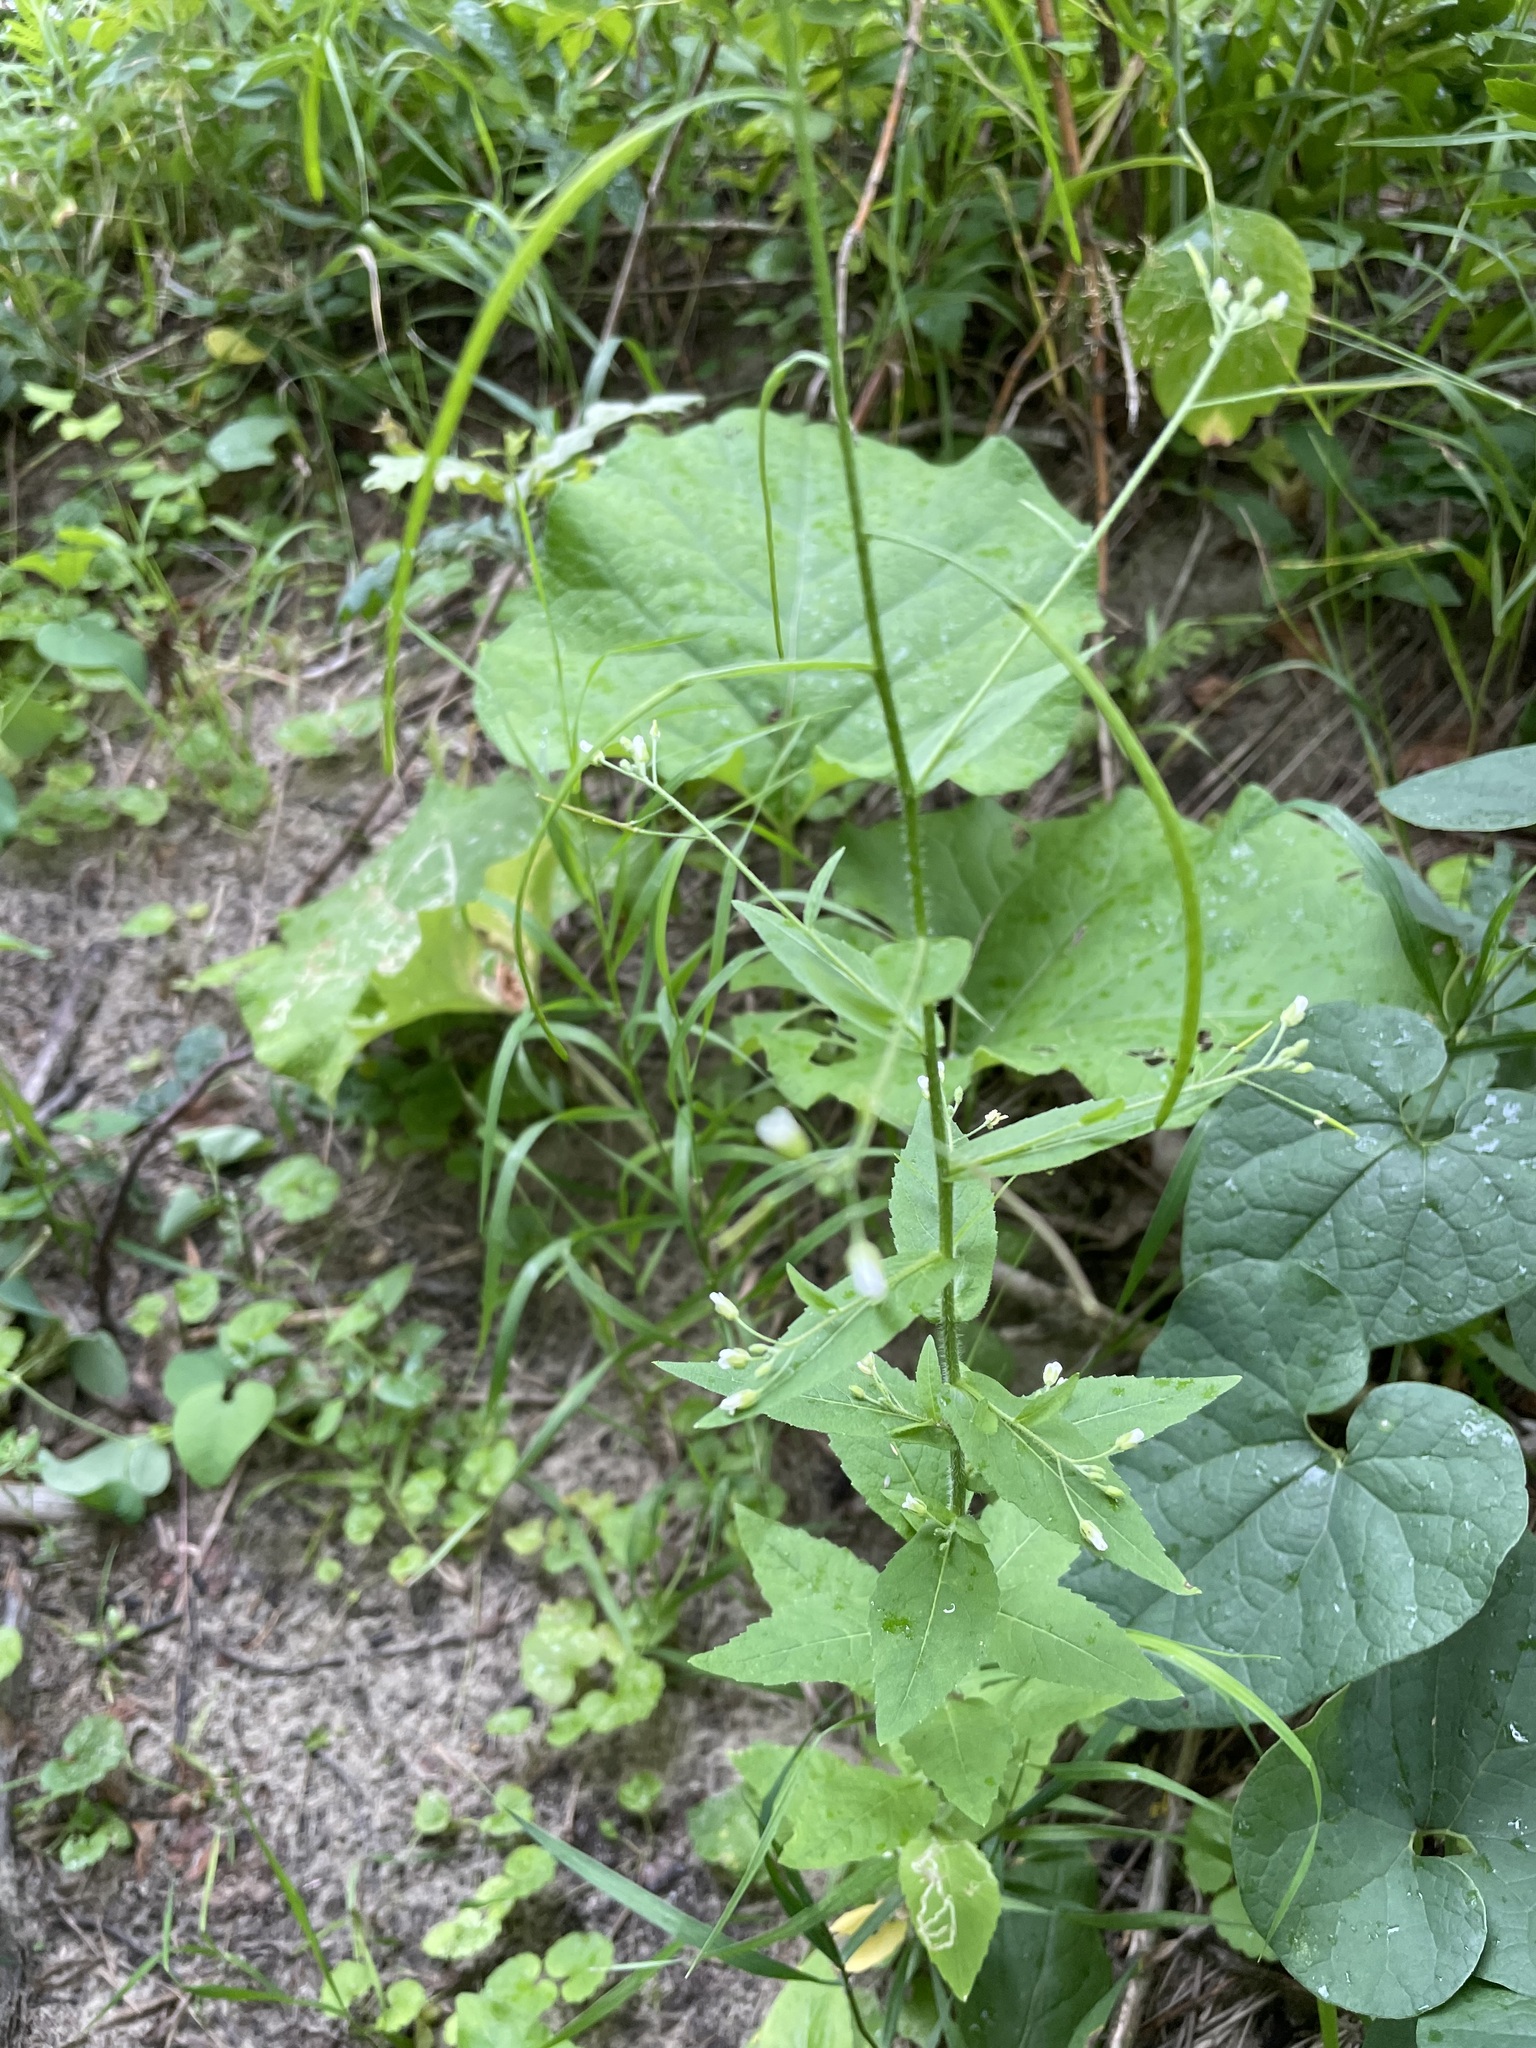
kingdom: Plantae
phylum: Tracheophyta
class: Magnoliopsida
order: Brassicales
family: Brassicaceae
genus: Catolobus
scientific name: Catolobus pendulus
